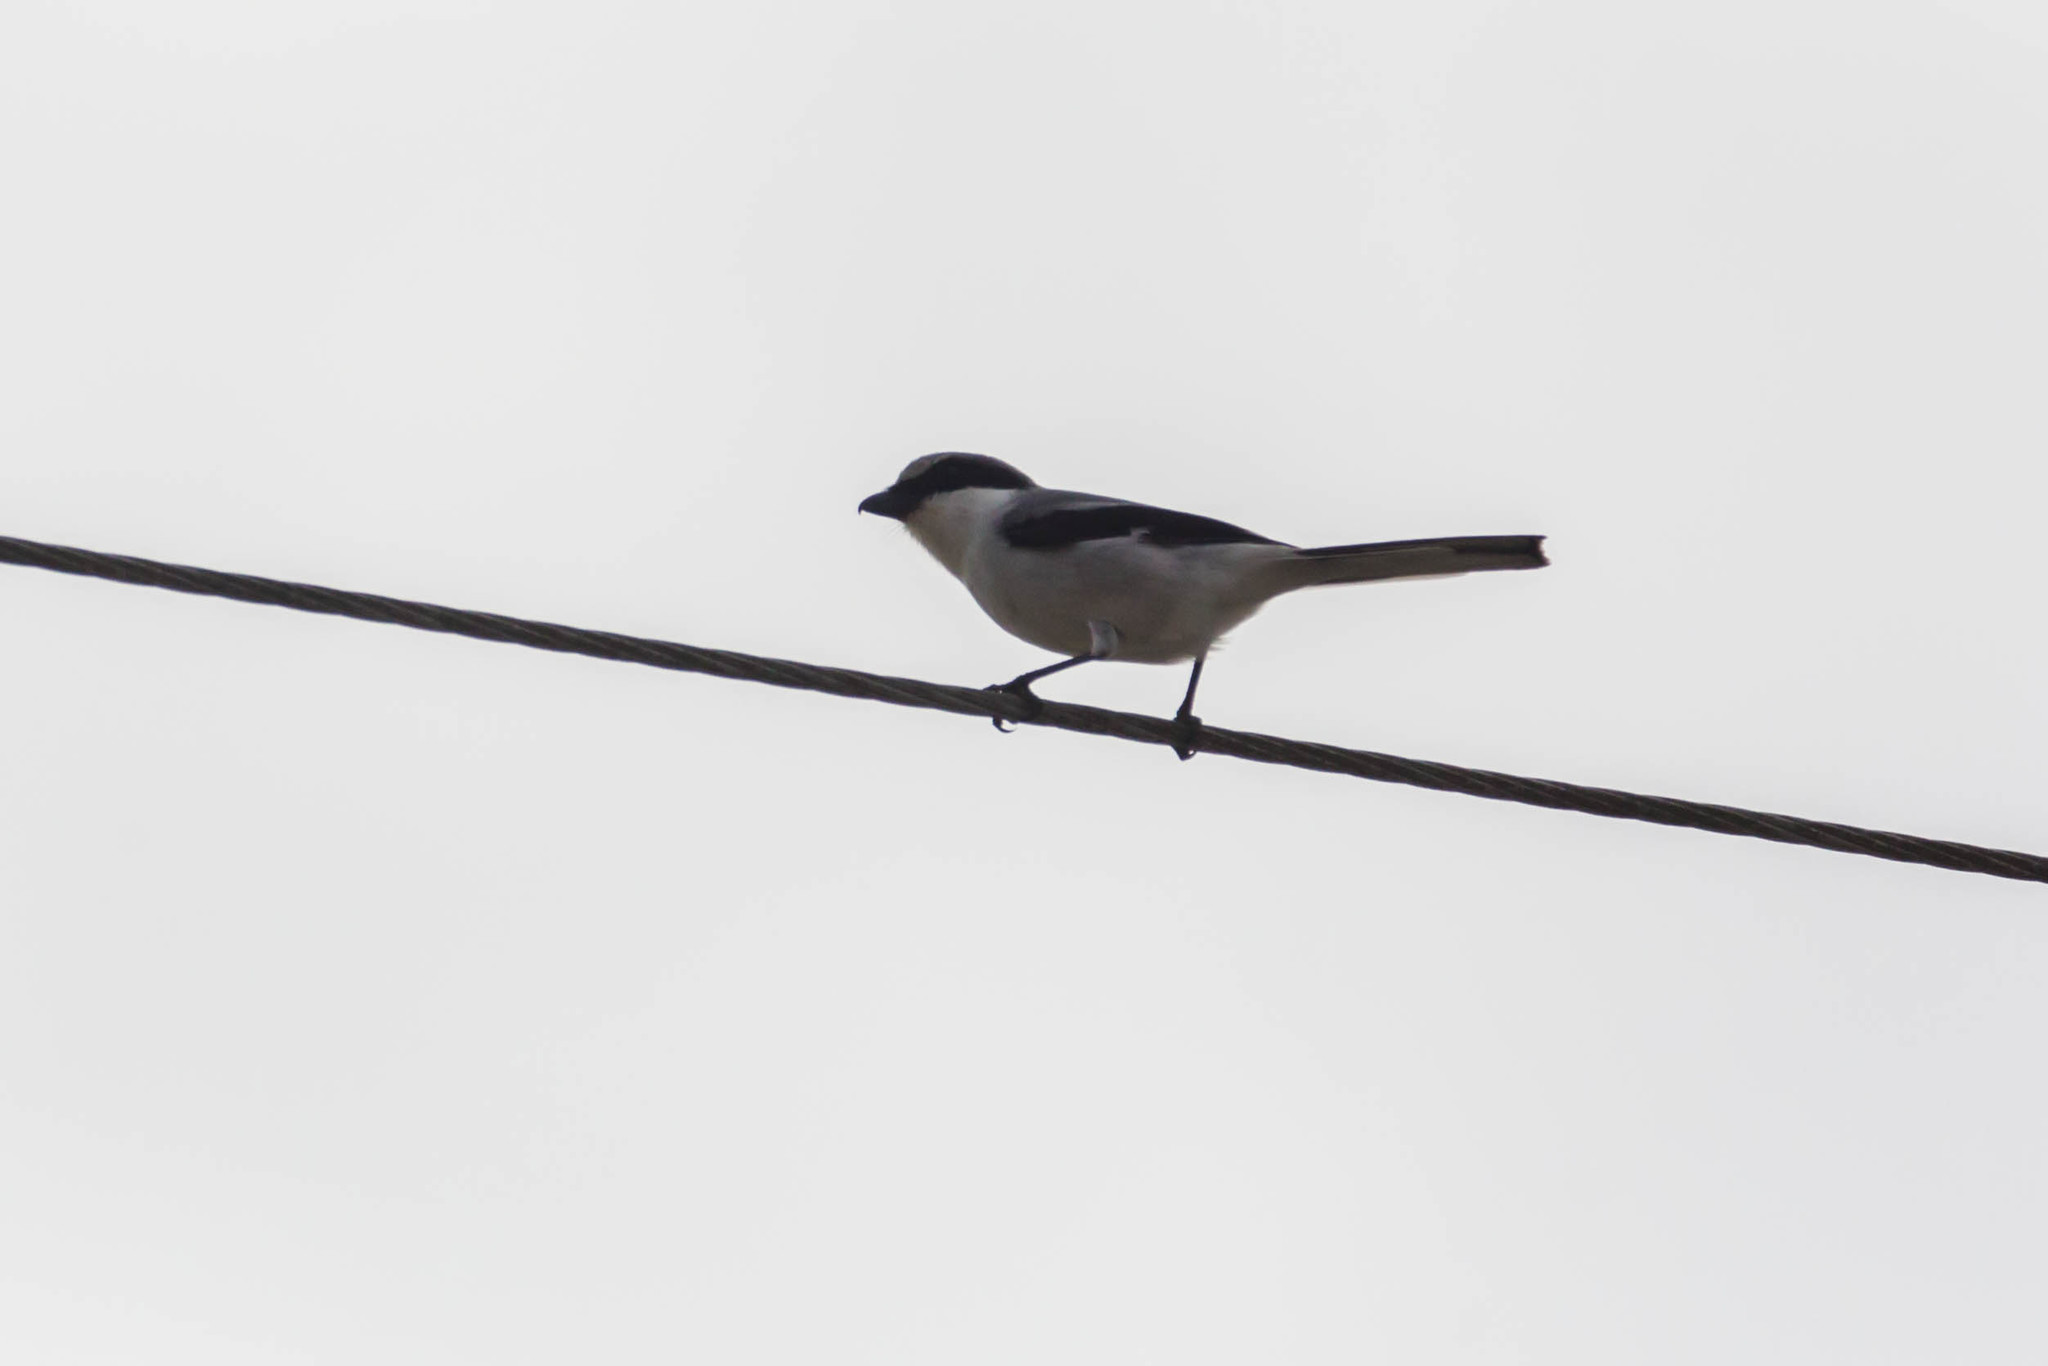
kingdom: Animalia
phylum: Chordata
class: Aves
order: Passeriformes
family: Laniidae
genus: Lanius
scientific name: Lanius ludovicianus
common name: Loggerhead shrike
